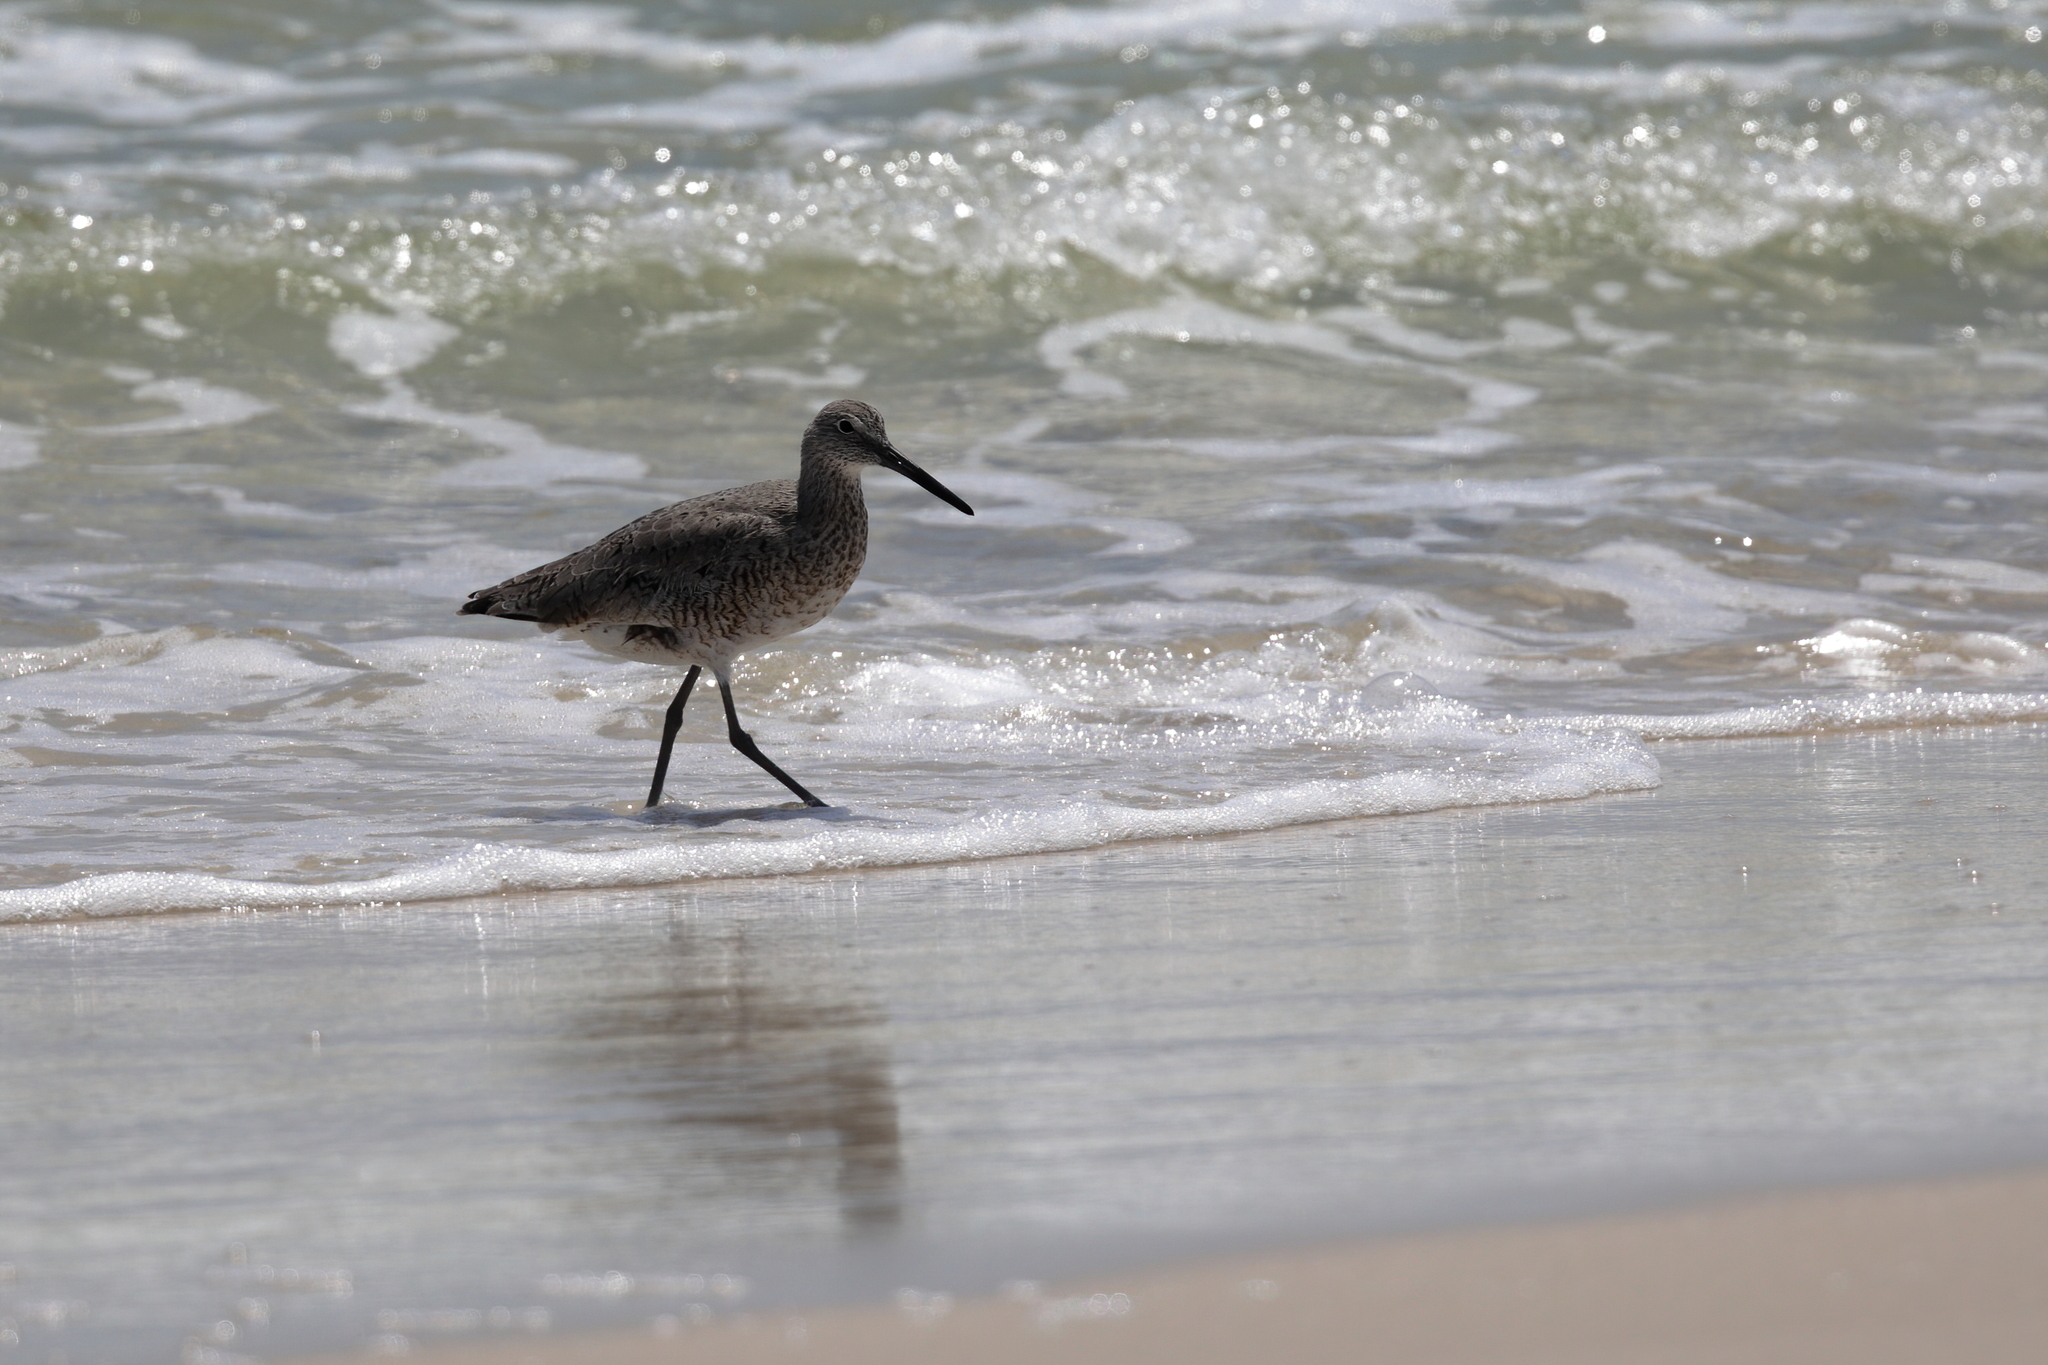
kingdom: Animalia
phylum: Chordata
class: Aves
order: Charadriiformes
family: Scolopacidae
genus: Tringa
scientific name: Tringa semipalmata
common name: Willet
